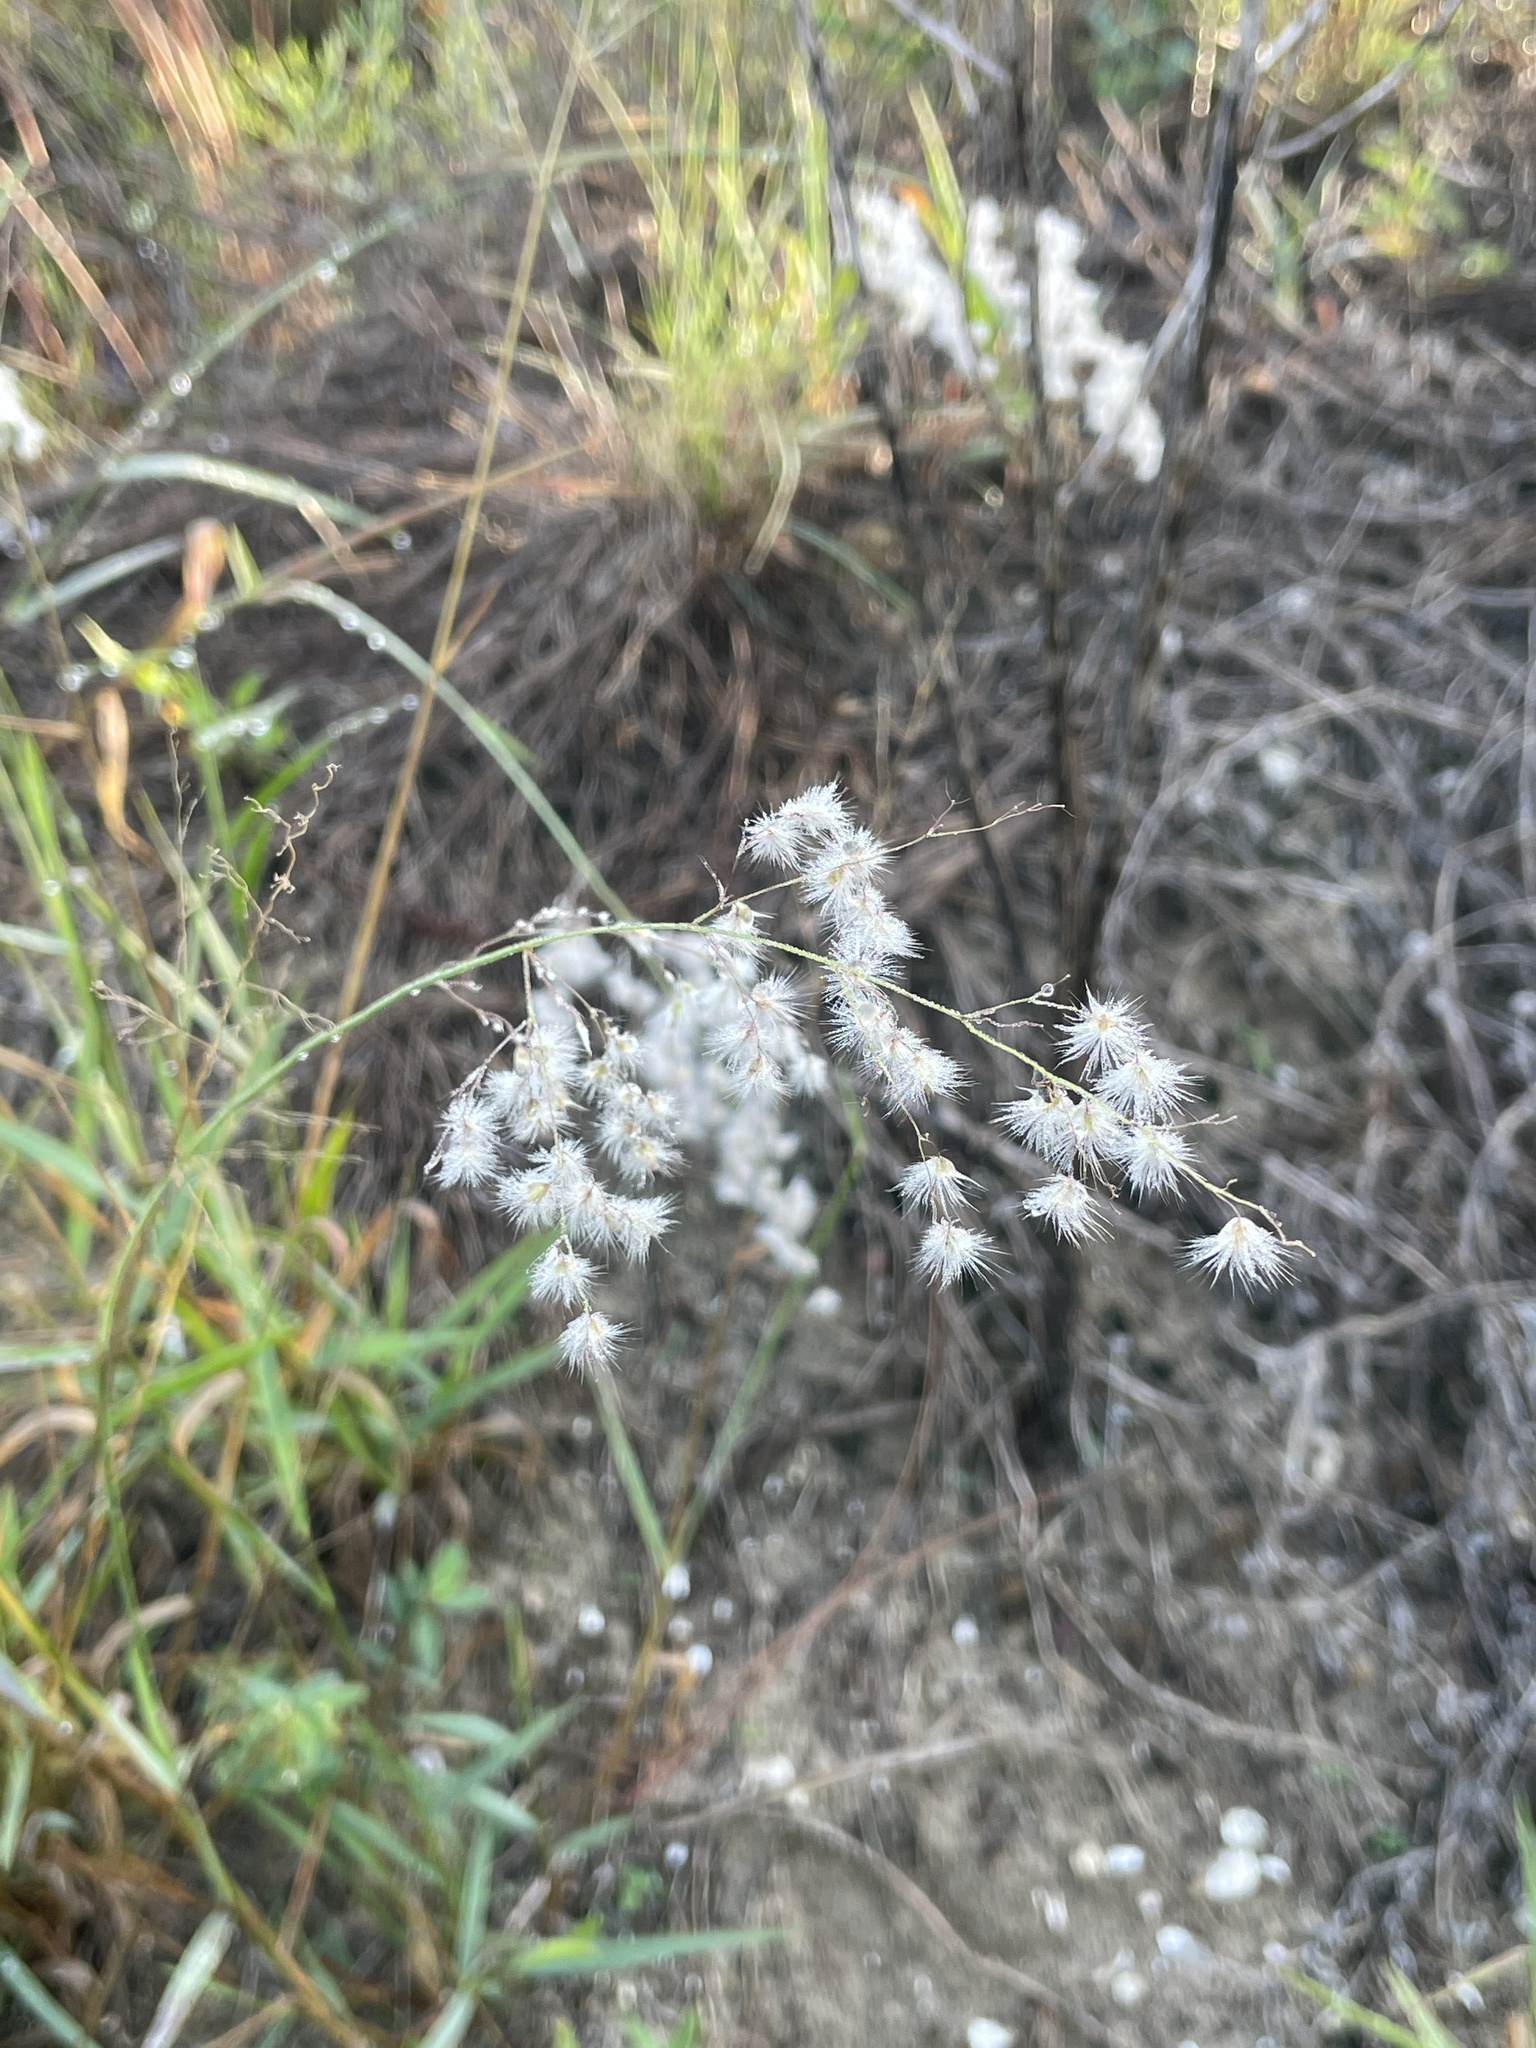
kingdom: Plantae
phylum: Tracheophyta
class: Liliopsida
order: Poales
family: Poaceae
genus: Melinis
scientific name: Melinis repens
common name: Rose natal grass
